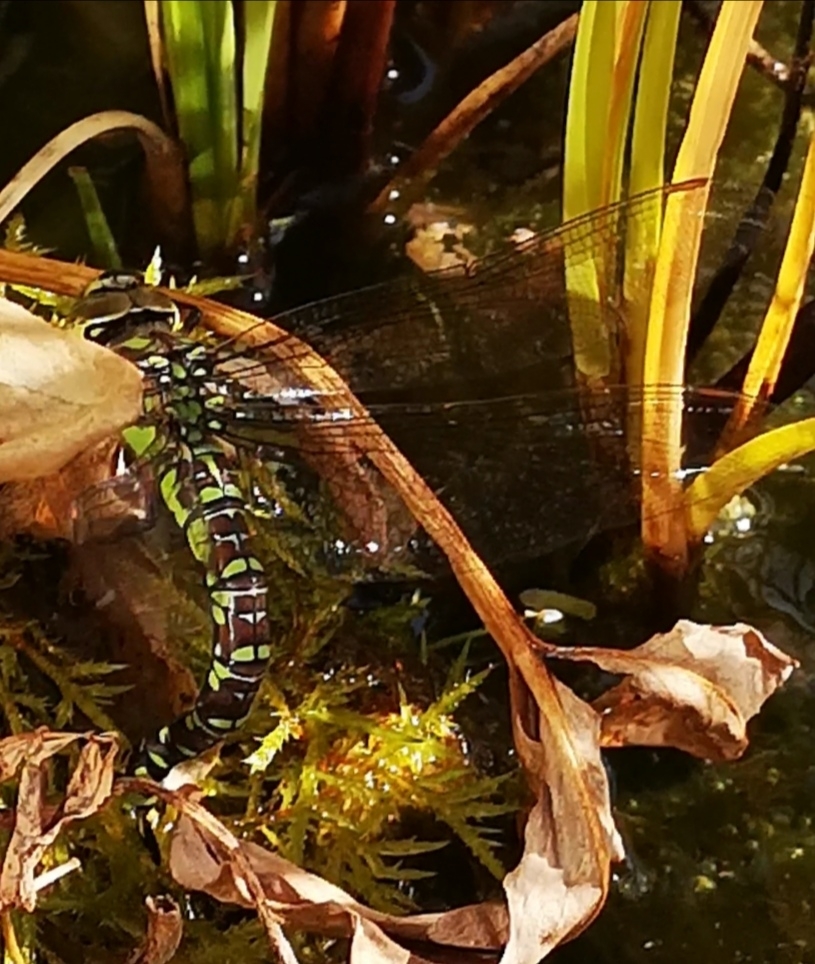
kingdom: Animalia
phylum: Arthropoda
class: Insecta
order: Odonata
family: Aeshnidae
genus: Aeshna
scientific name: Aeshna cyanea
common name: Southern hawker
